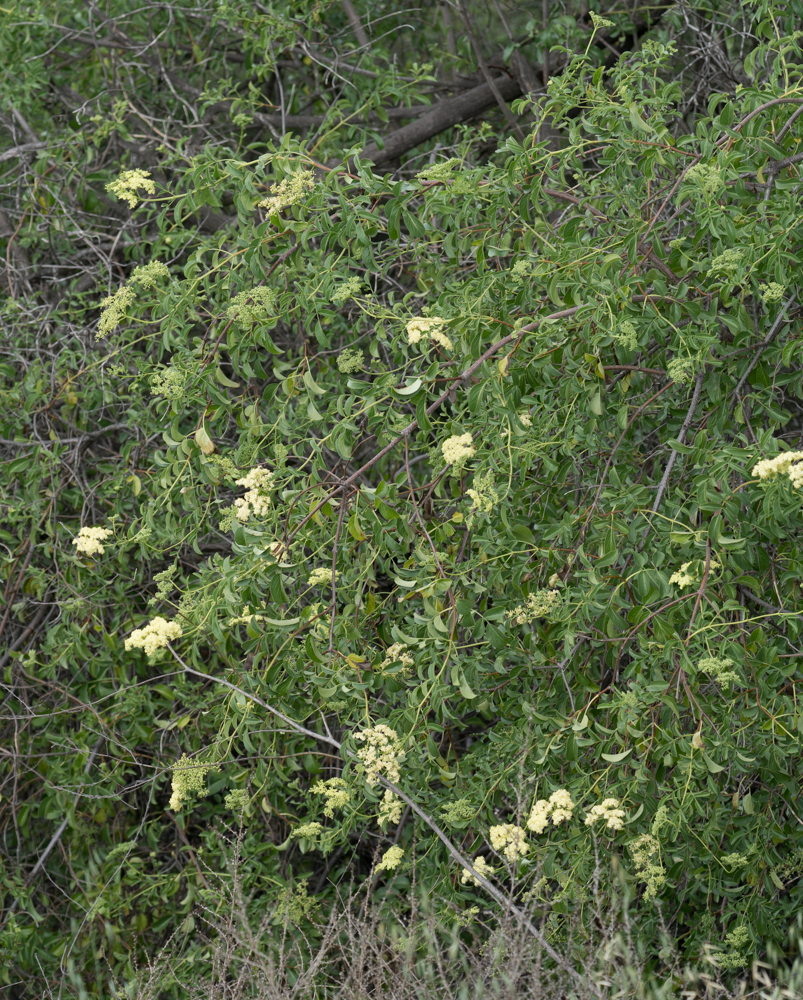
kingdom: Plantae
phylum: Tracheophyta
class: Magnoliopsida
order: Dipsacales
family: Viburnaceae
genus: Sambucus
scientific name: Sambucus cerulea
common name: Blue elder
